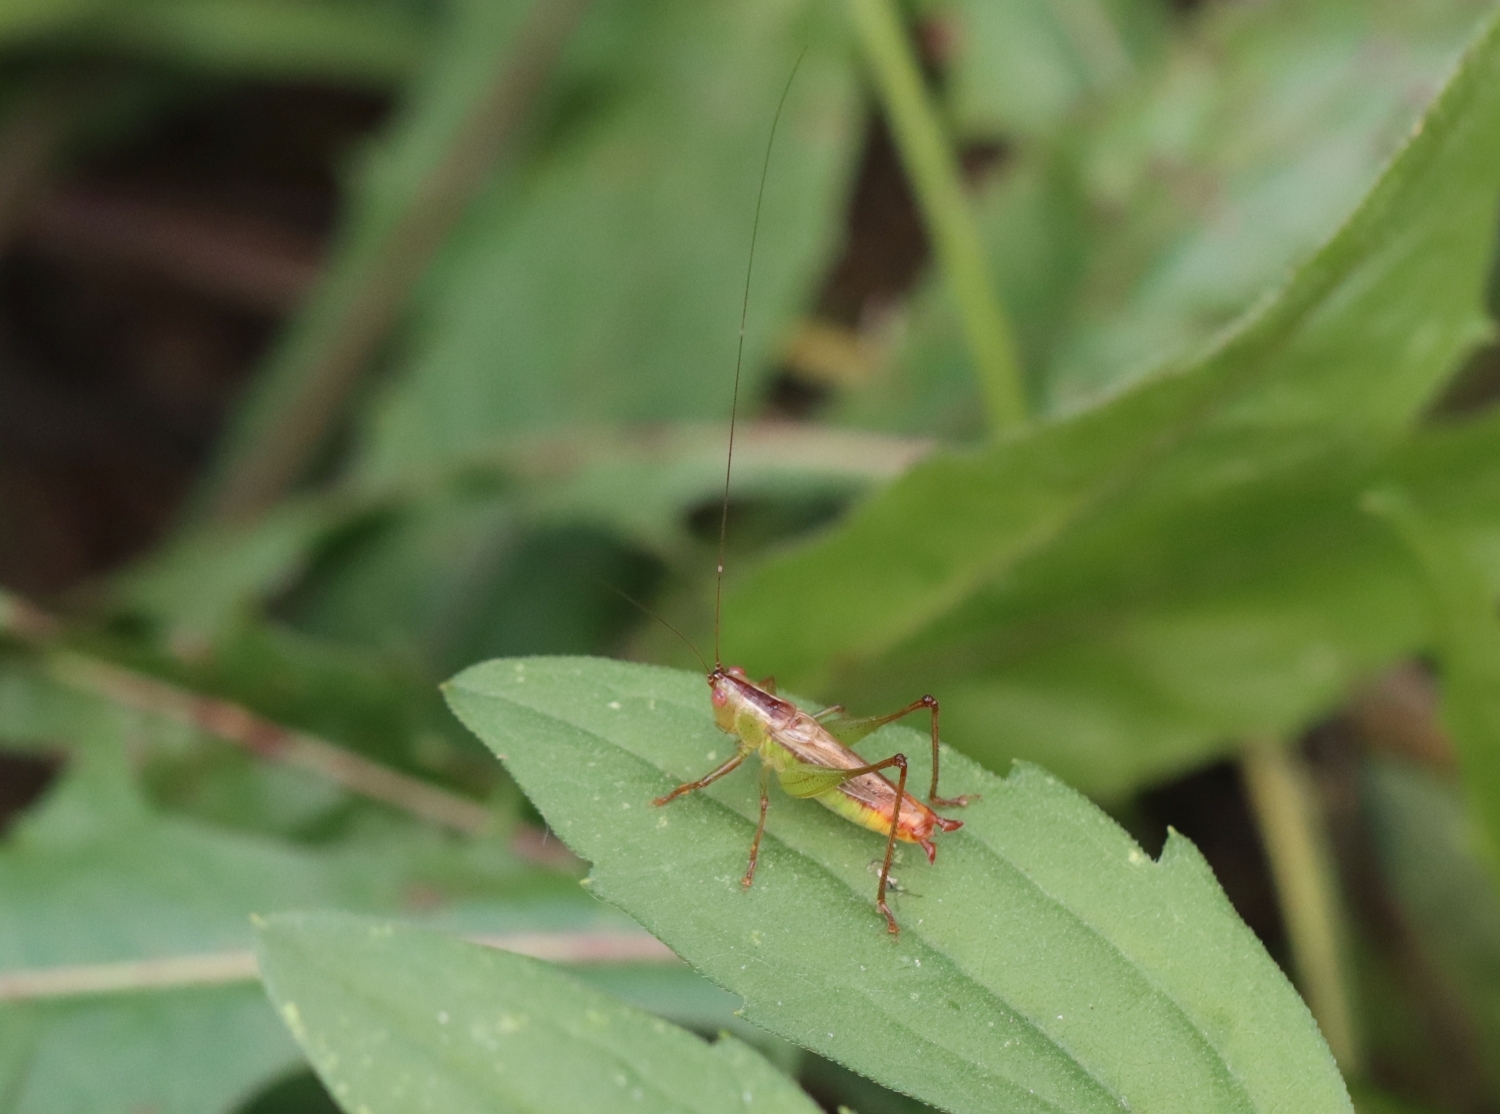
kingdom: Animalia
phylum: Arthropoda
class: Insecta
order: Orthoptera
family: Tettigoniidae
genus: Conocephalus
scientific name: Conocephalus brevipennis
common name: Short-winged meadow katydid
